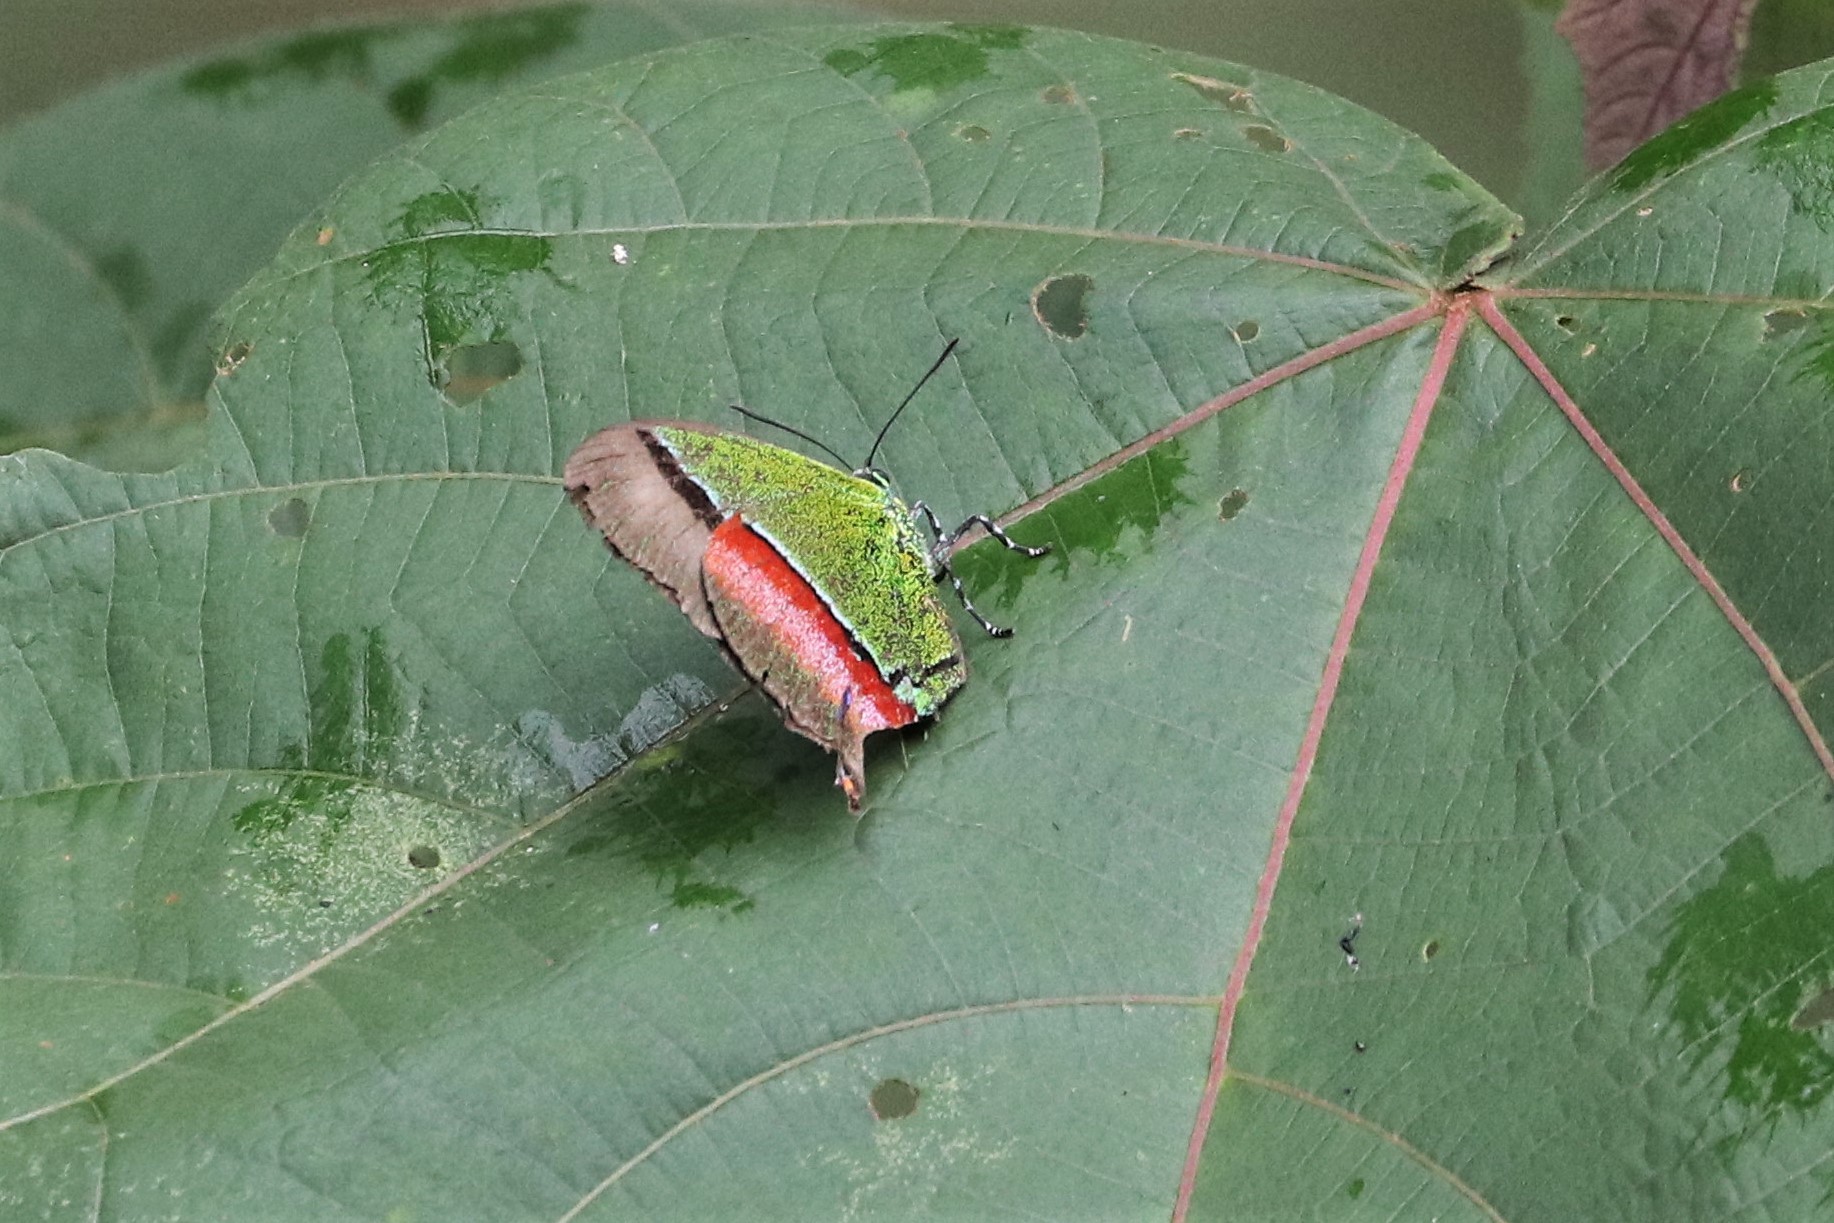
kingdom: Animalia
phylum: Arthropoda
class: Insecta
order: Lepidoptera
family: Lycaenidae
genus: Evenus
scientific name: Evenus coronata
